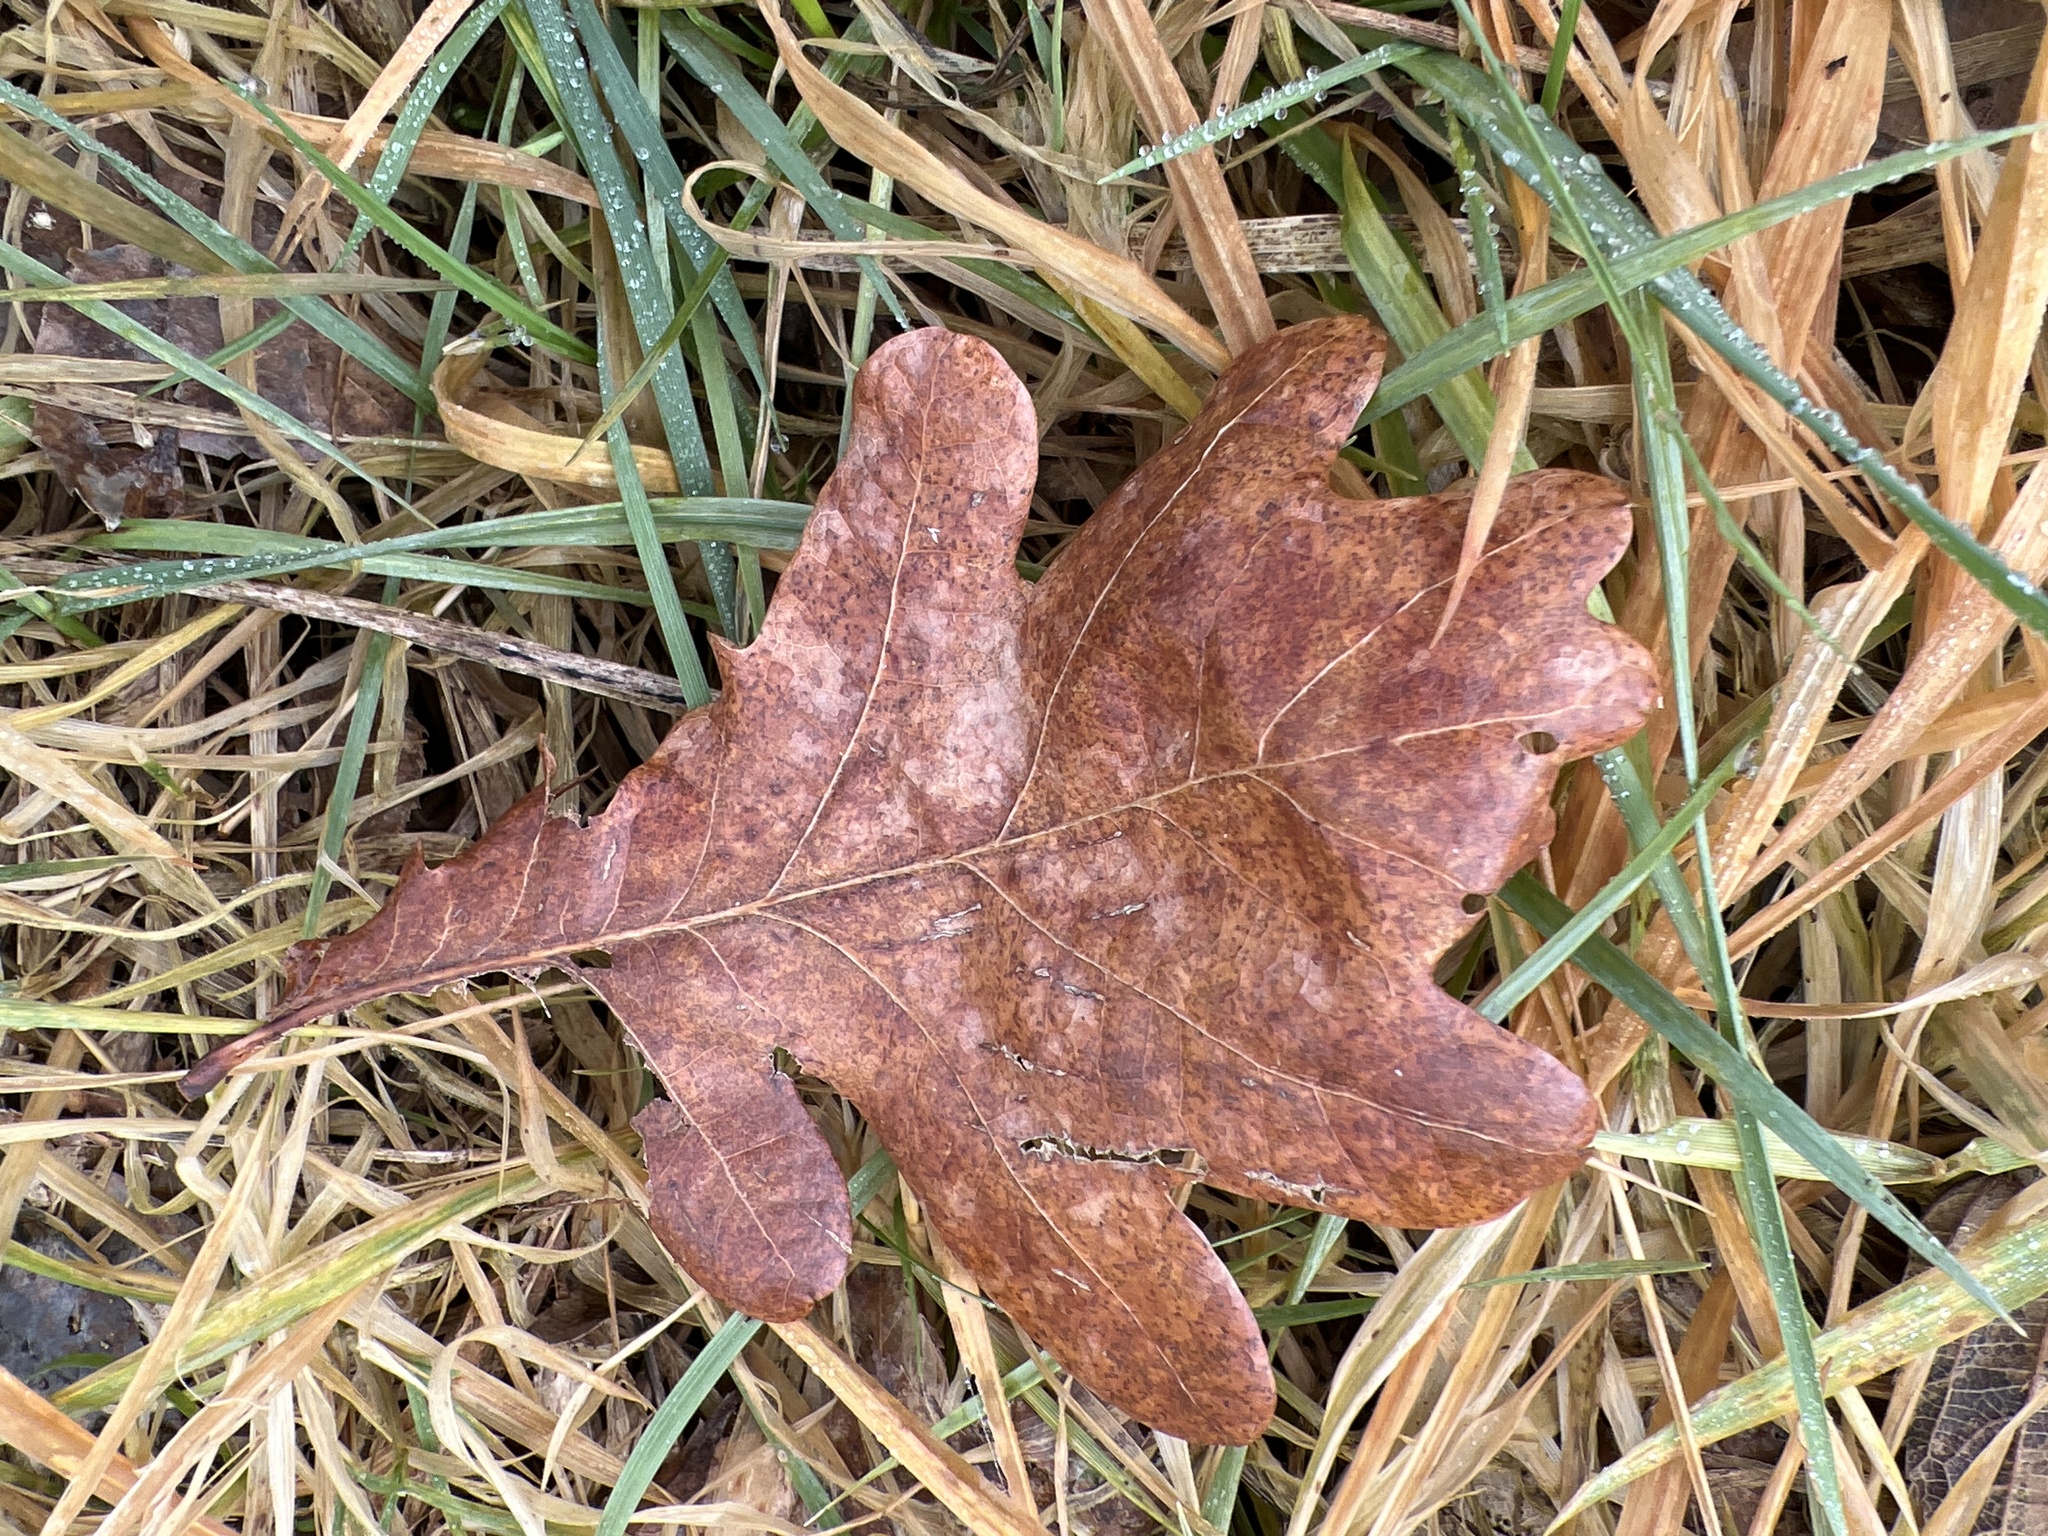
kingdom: Plantae
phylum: Tracheophyta
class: Magnoliopsida
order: Fagales
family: Fagaceae
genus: Quercus
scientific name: Quercus robur
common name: Pedunculate oak
